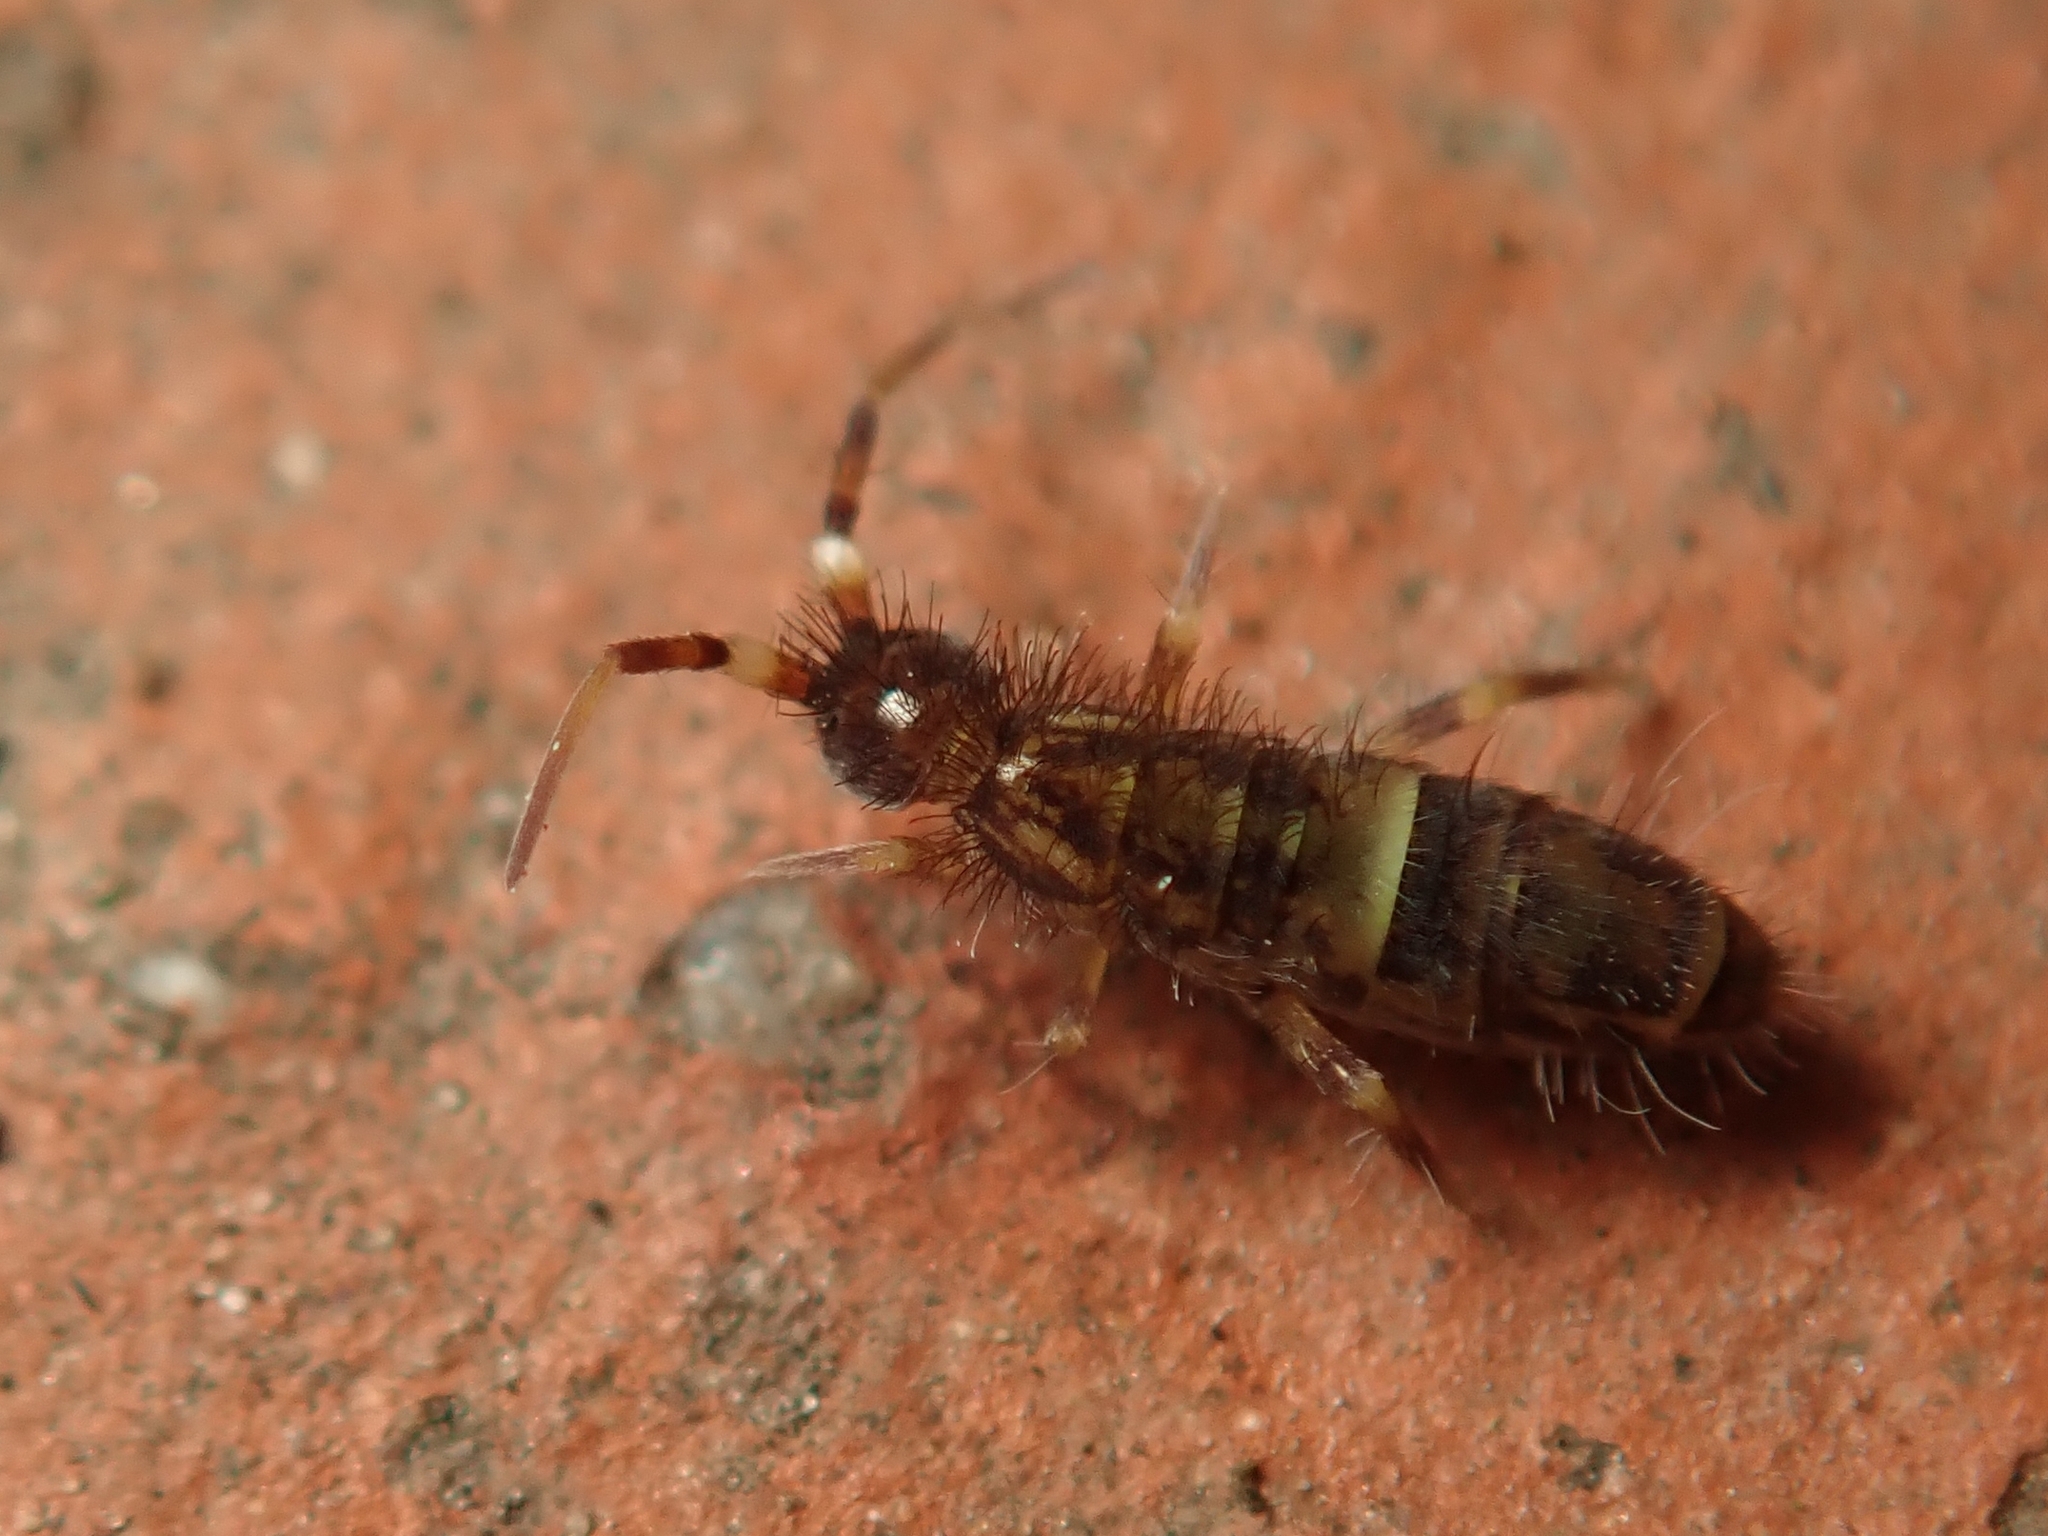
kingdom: Animalia
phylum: Arthropoda
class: Collembola
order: Entomobryomorpha
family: Orchesellidae
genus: Orchesella
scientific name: Orchesella cincta
